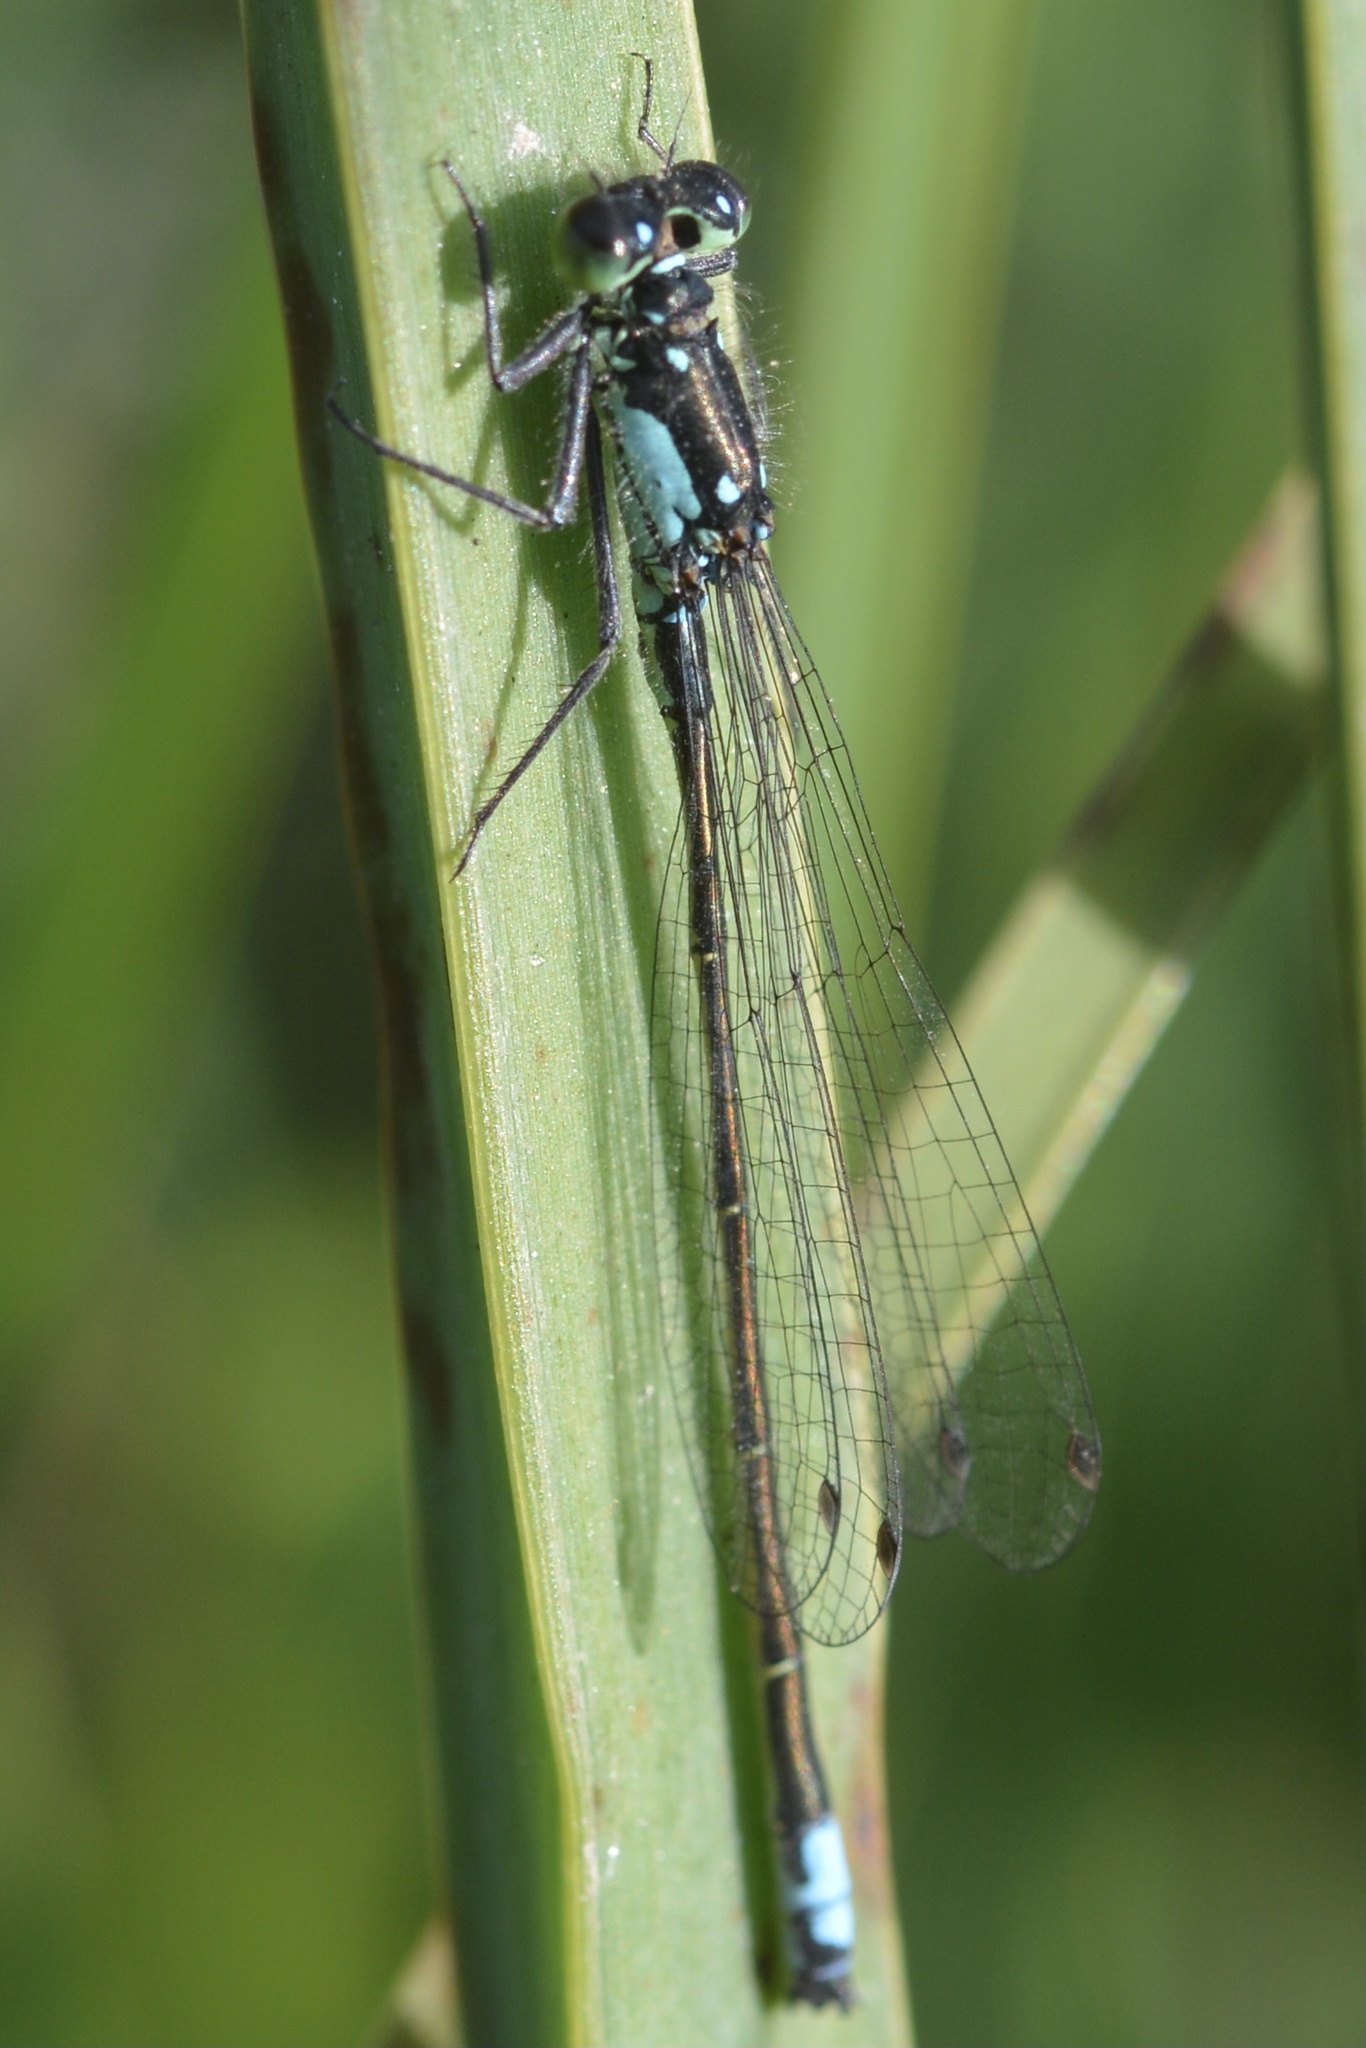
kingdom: Animalia
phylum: Arthropoda
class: Insecta
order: Odonata
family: Coenagrionidae
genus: Ischnura
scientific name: Ischnura cervula
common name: Pacific forktail
